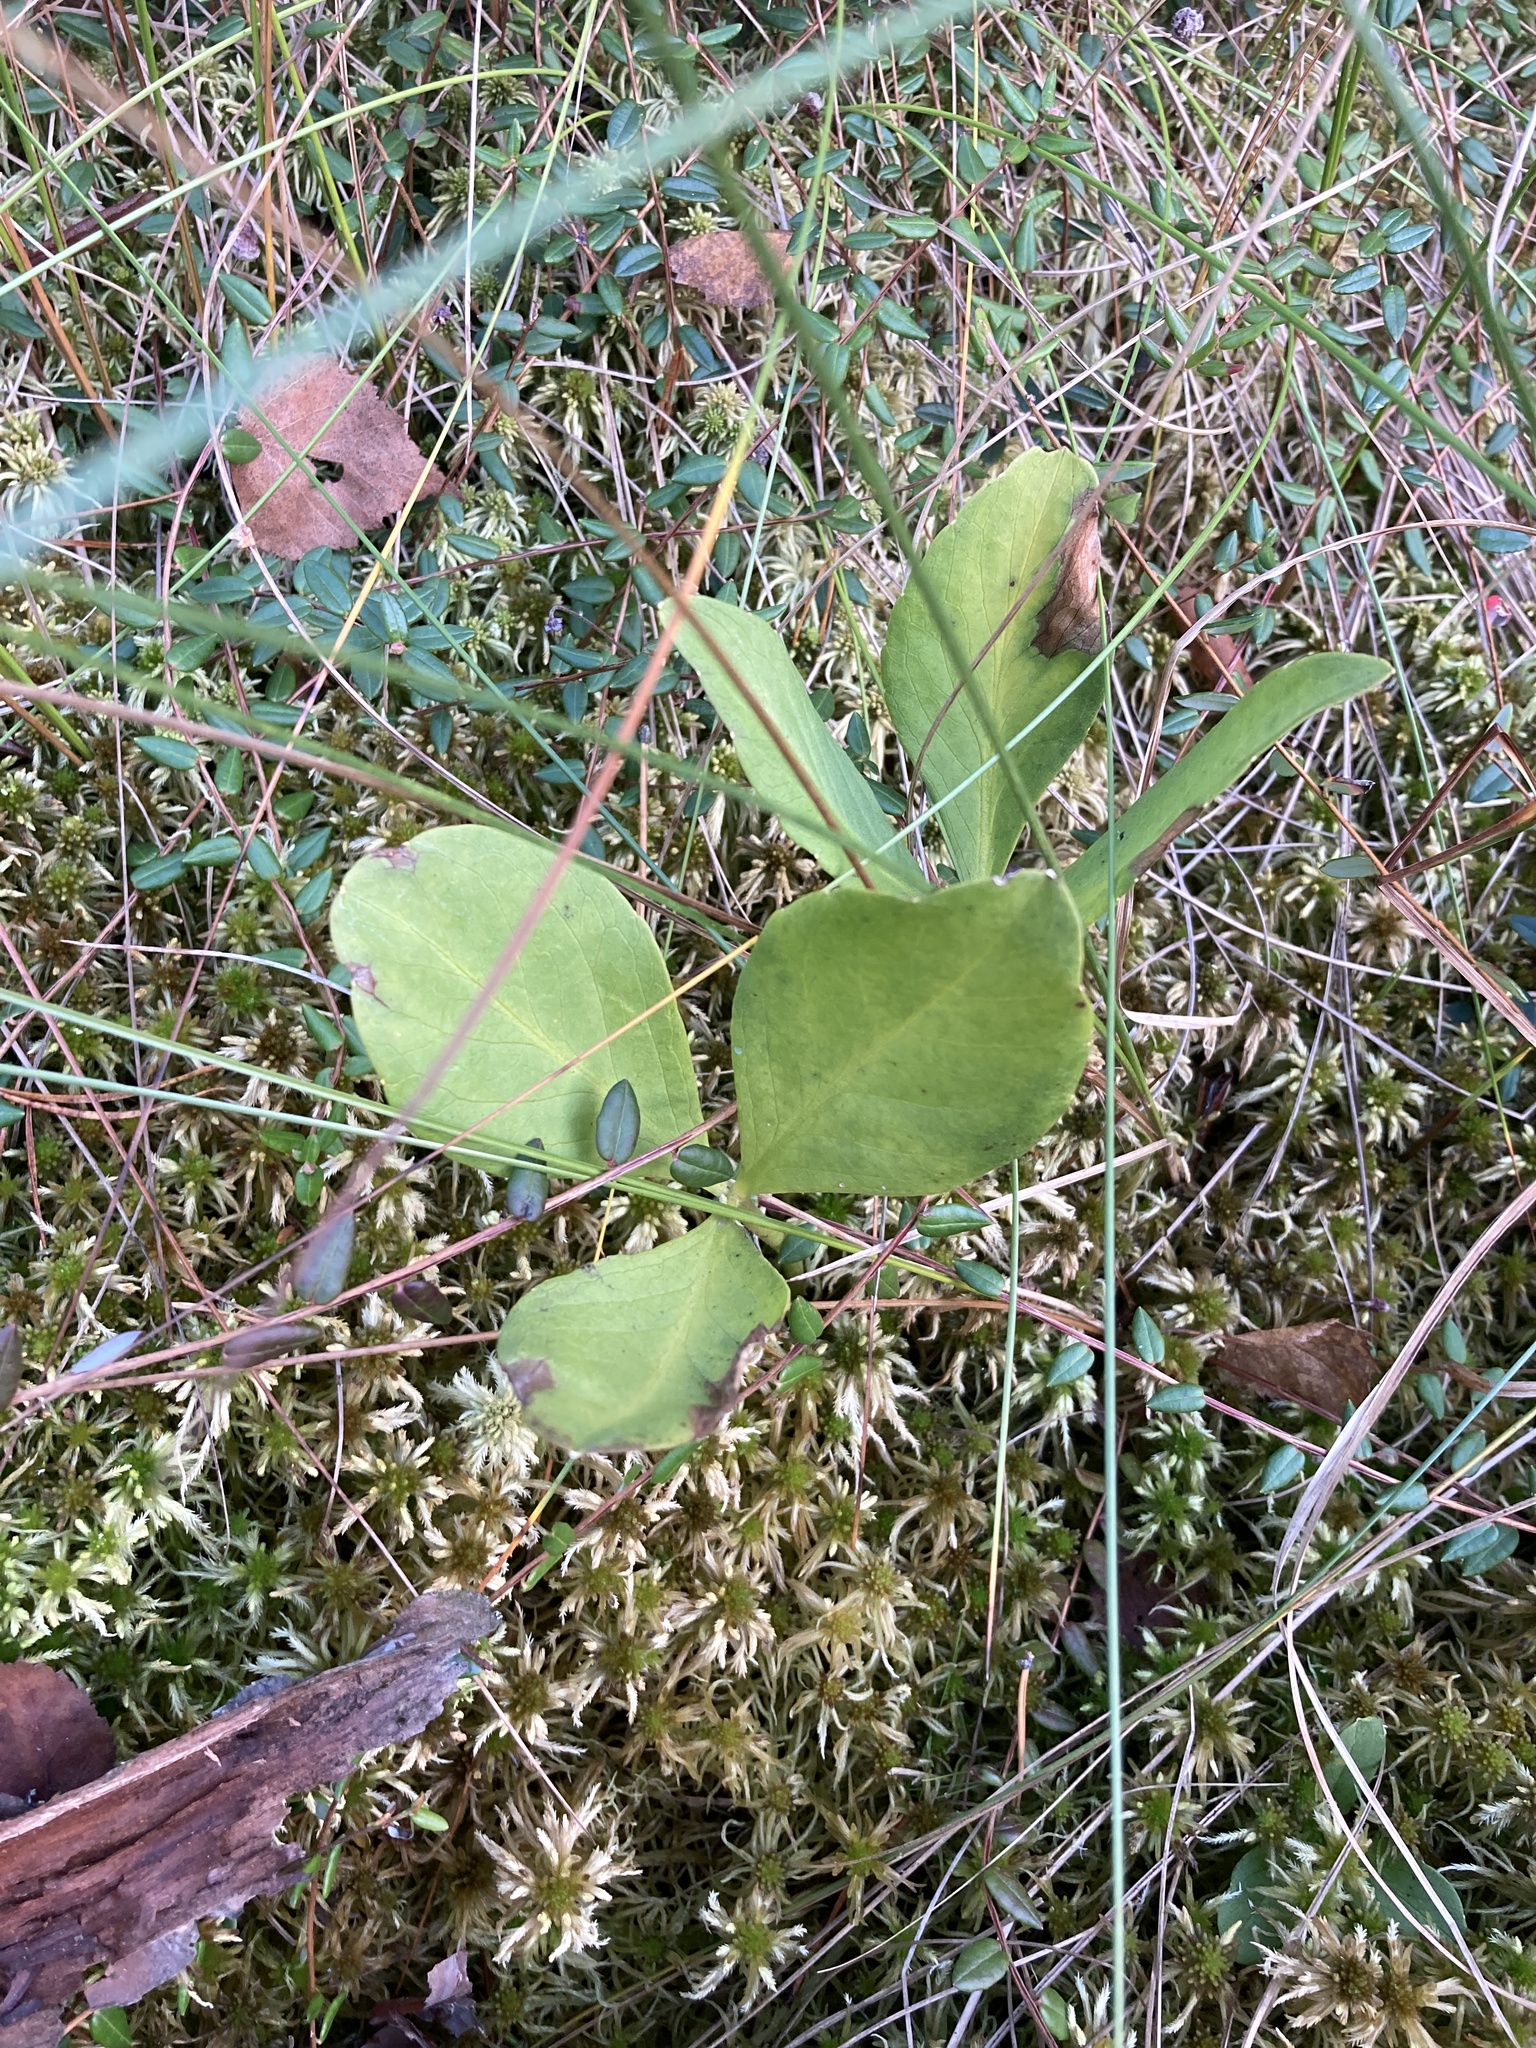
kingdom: Plantae
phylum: Tracheophyta
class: Magnoliopsida
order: Asterales
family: Menyanthaceae
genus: Menyanthes
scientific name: Menyanthes trifoliata
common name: Bogbean
